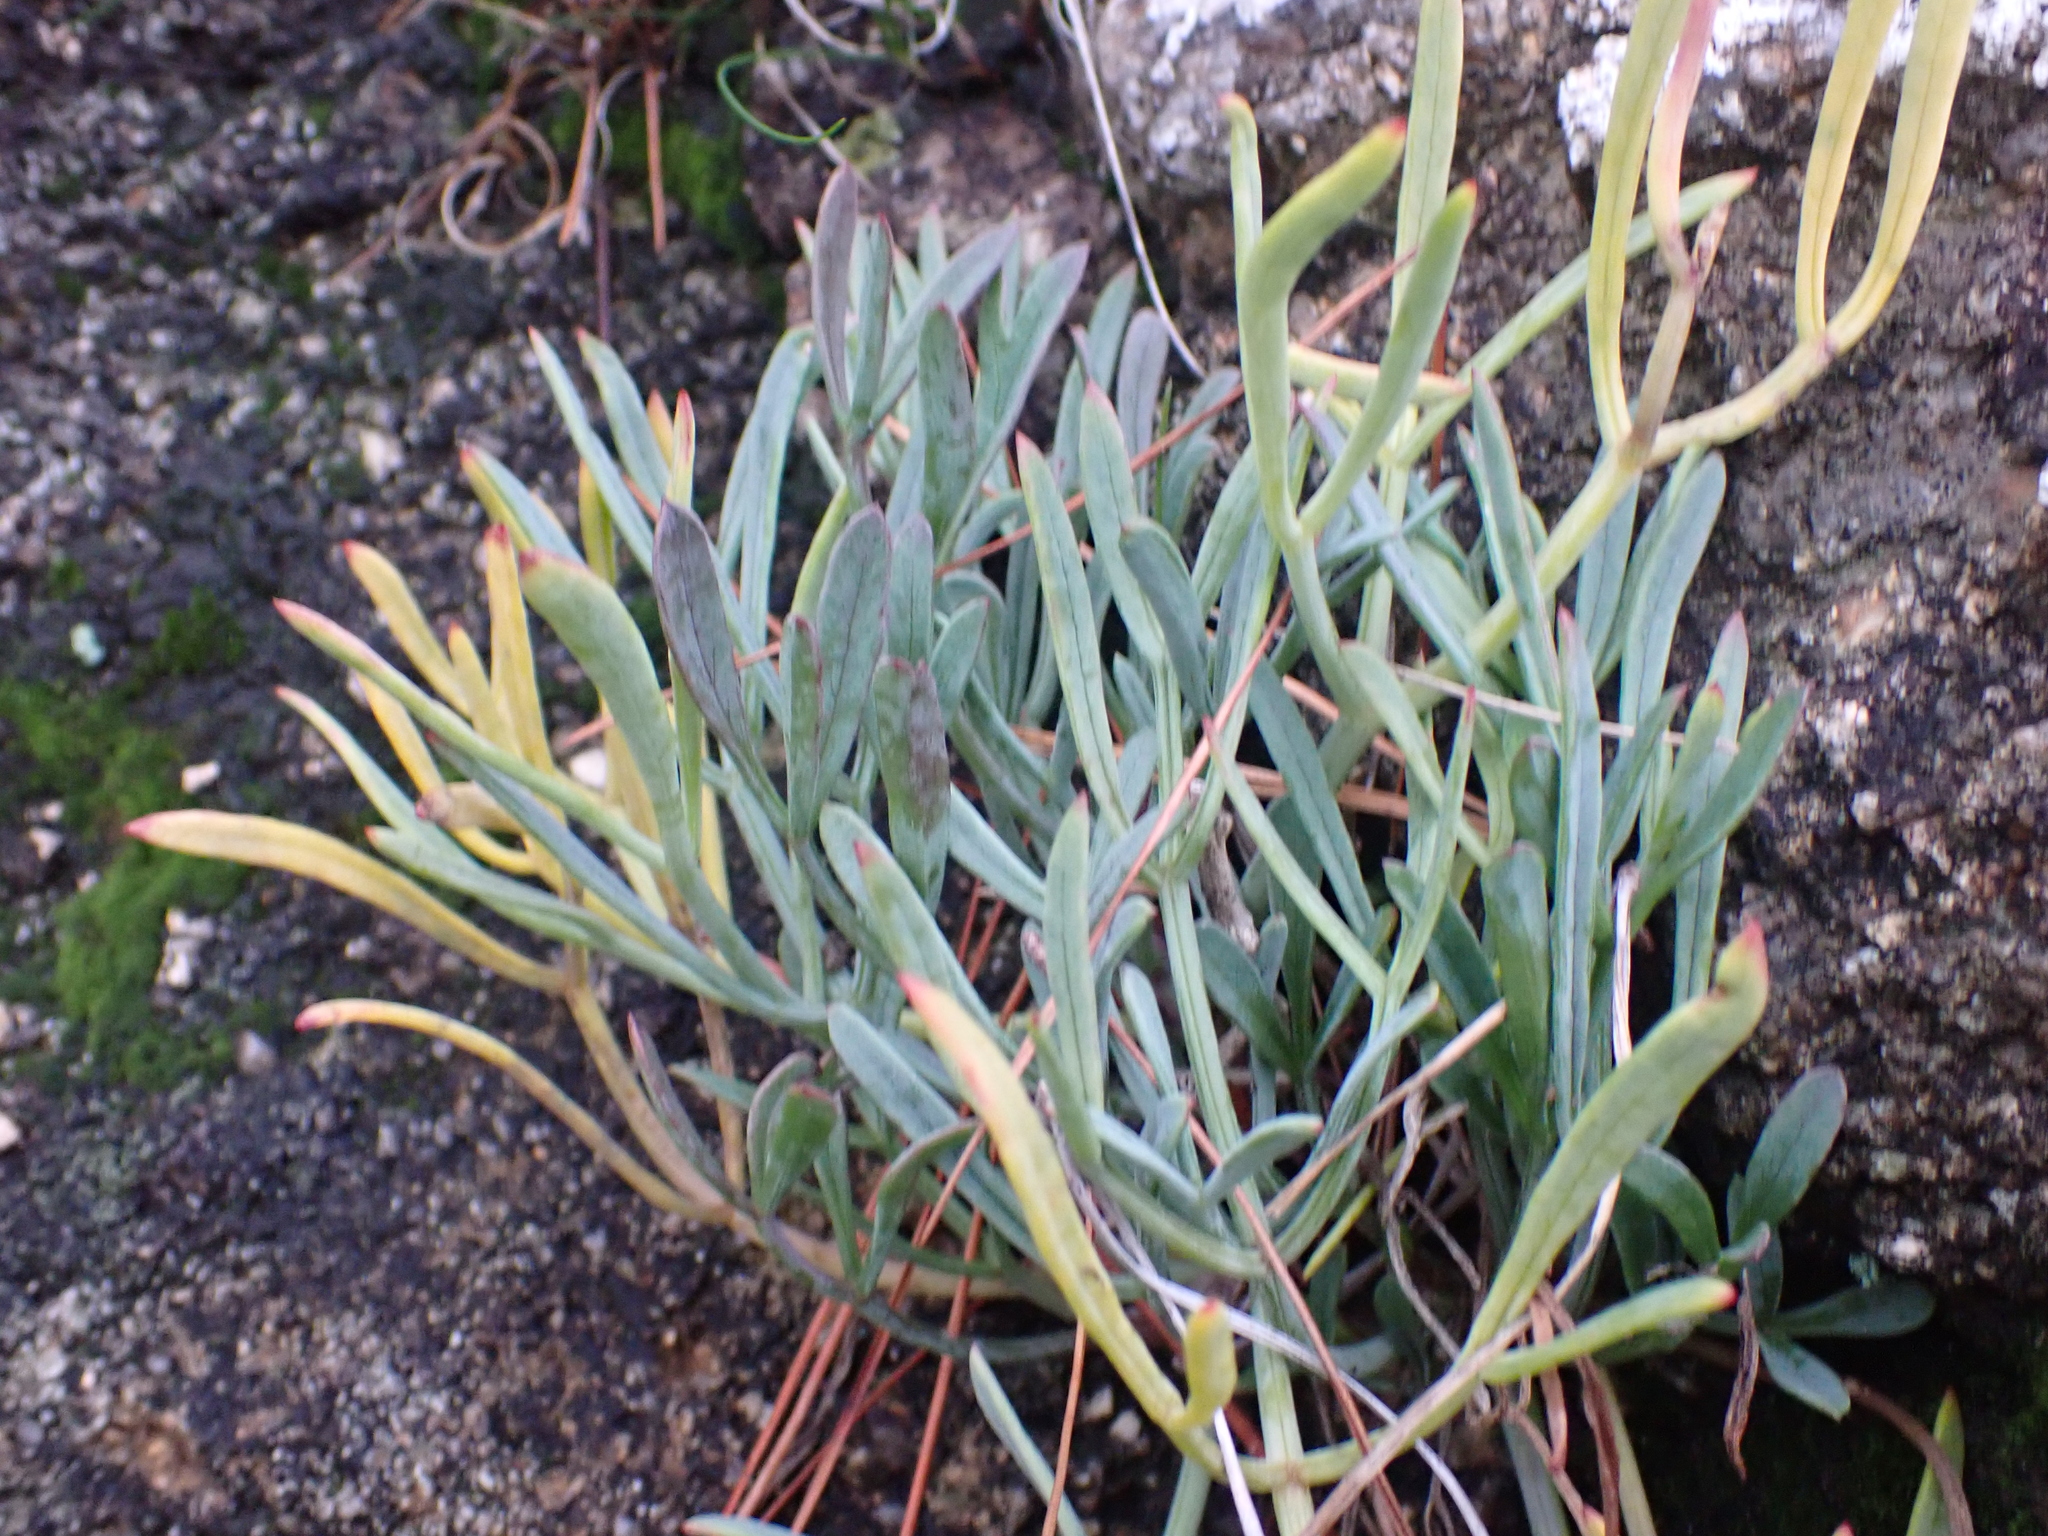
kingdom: Plantae
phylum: Tracheophyta
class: Magnoliopsida
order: Apiales
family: Apiaceae
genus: Crithmum
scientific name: Crithmum maritimum
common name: Rock samphire
